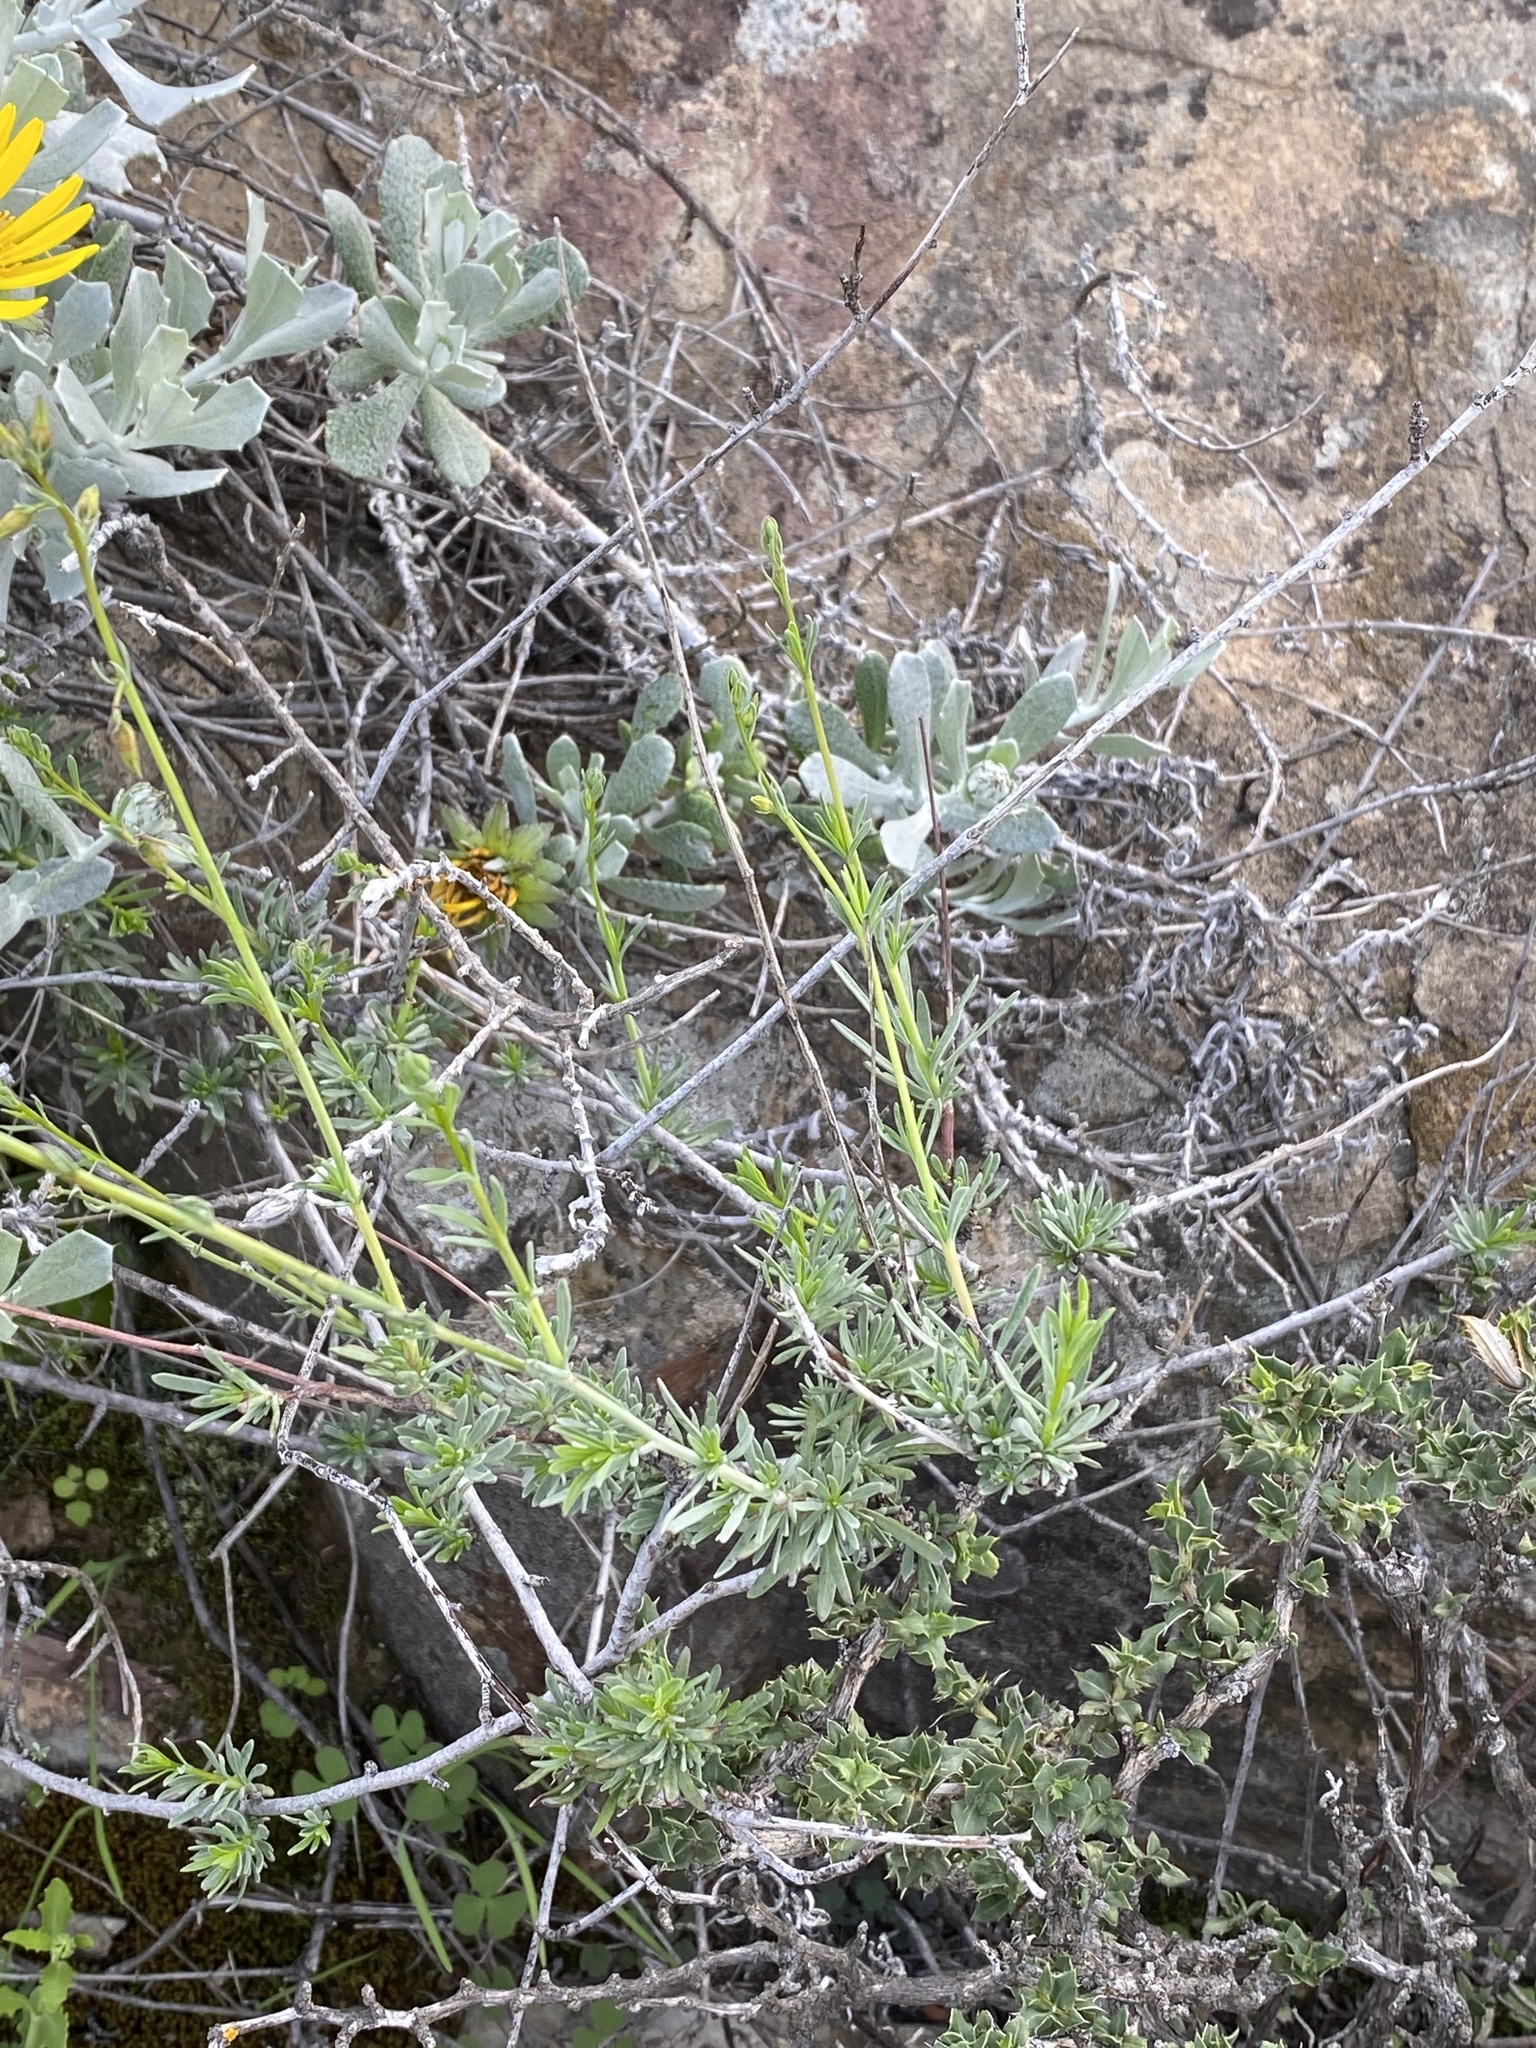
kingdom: Plantae
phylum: Tracheophyta
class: Magnoliopsida
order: Malvales
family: Malvaceae
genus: Hermannia
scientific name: Hermannia filifolia
